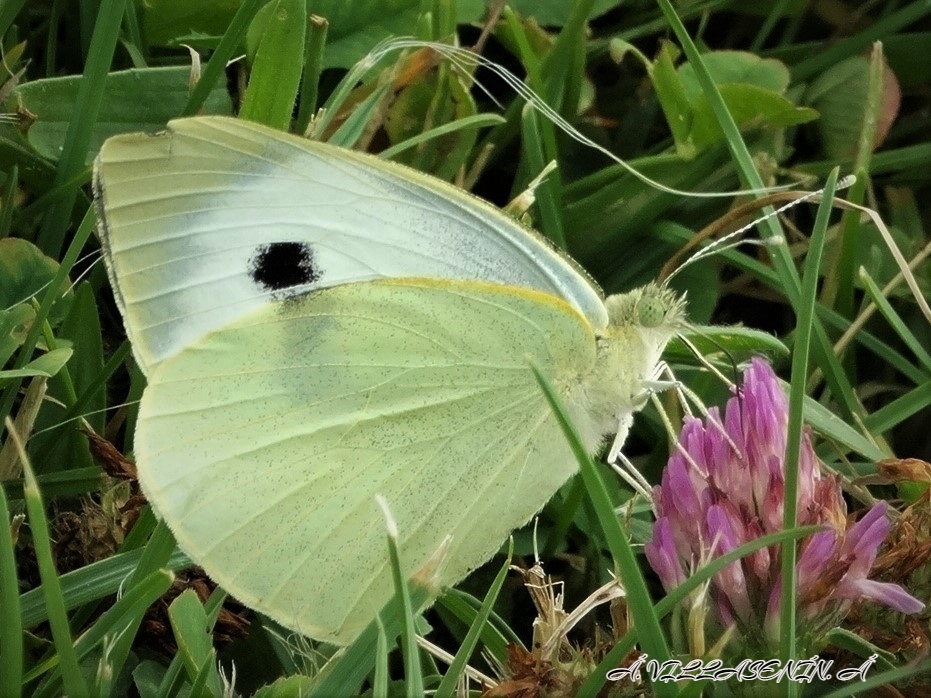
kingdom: Animalia
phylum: Arthropoda
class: Insecta
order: Lepidoptera
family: Pieridae
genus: Pieris
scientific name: Pieris brassicae
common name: Large white
